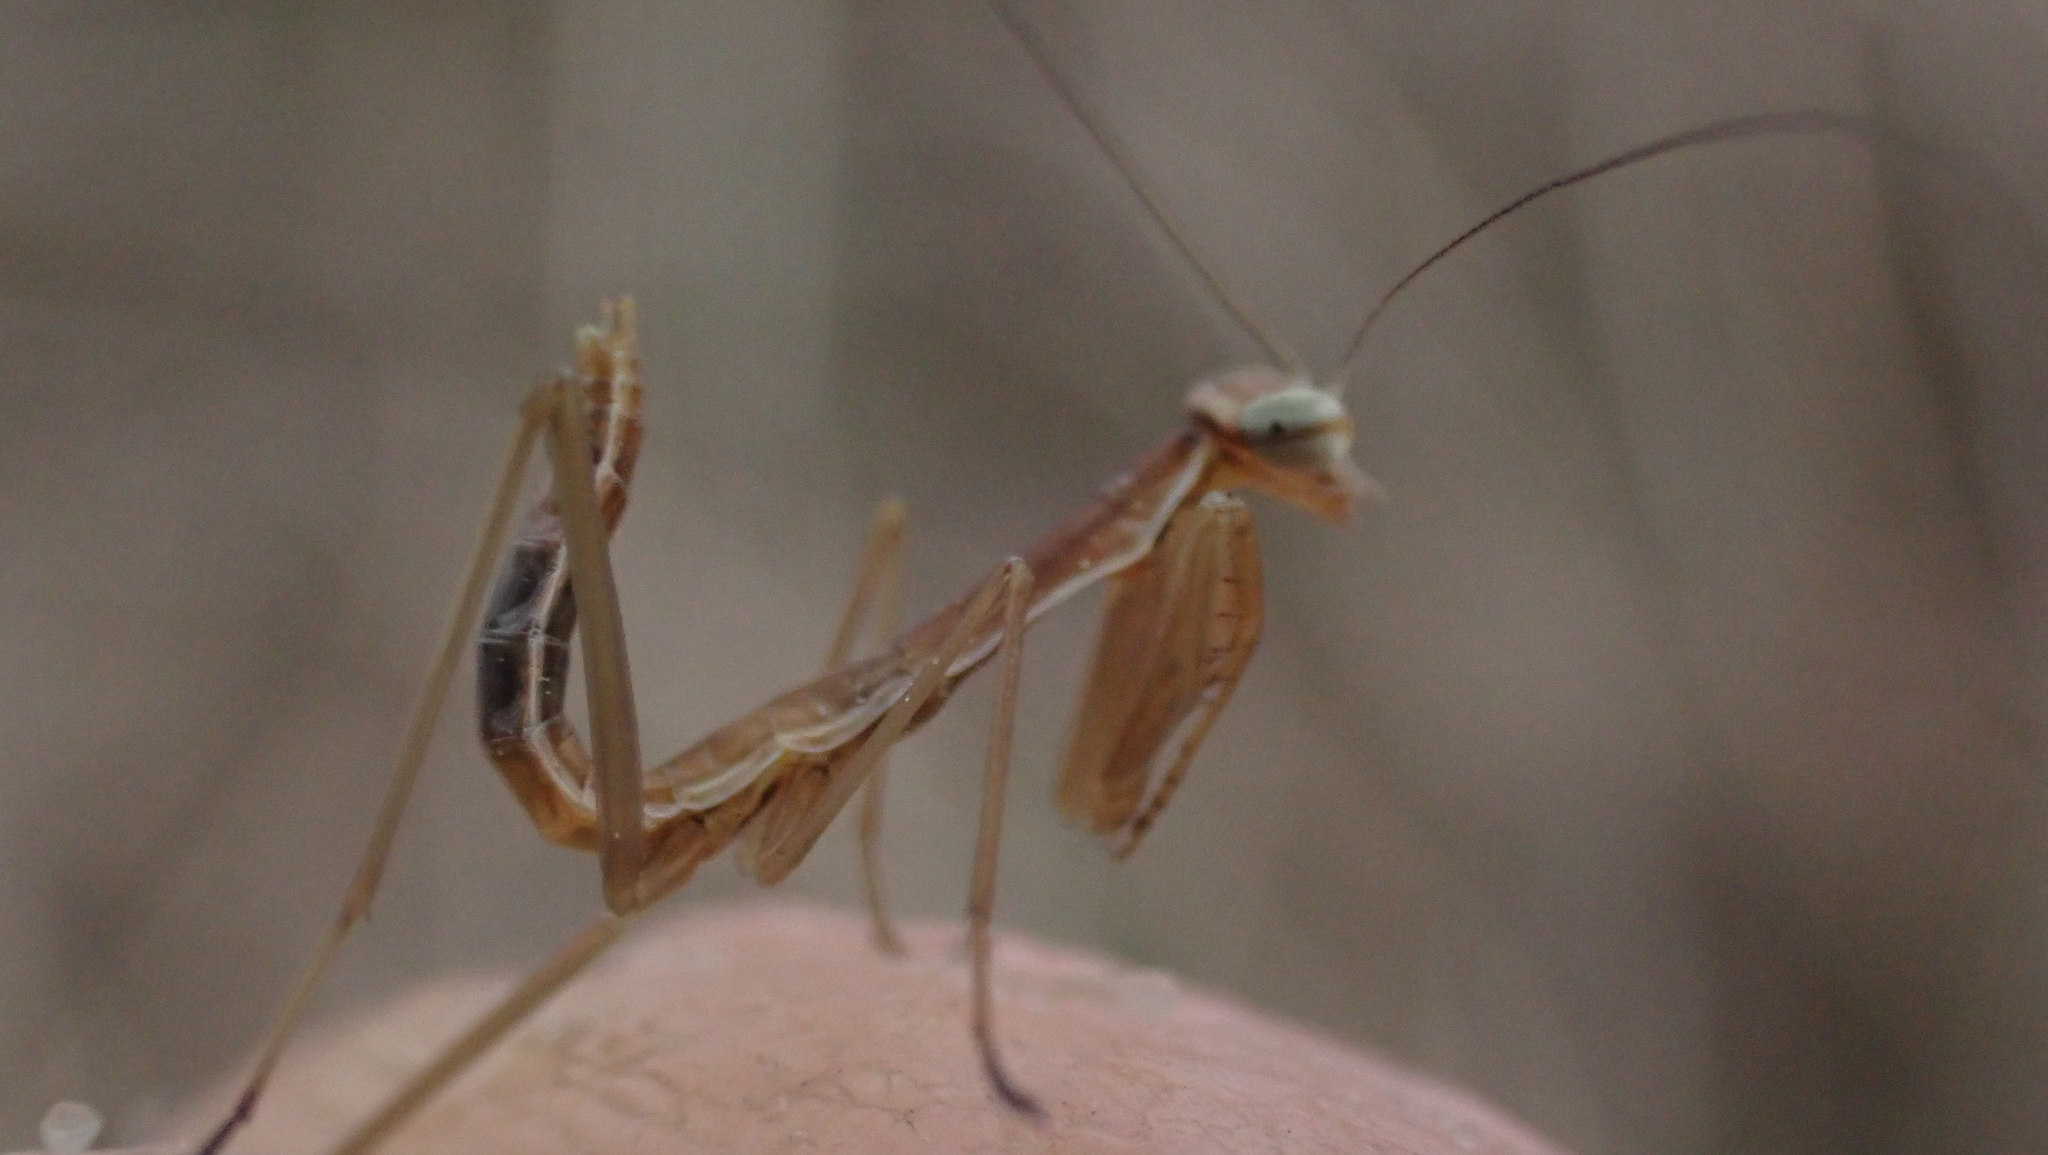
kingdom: Animalia
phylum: Arthropoda
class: Insecta
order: Mantodea
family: Mantidae
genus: Tenodera
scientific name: Tenodera sinensis
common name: Chinese mantis
